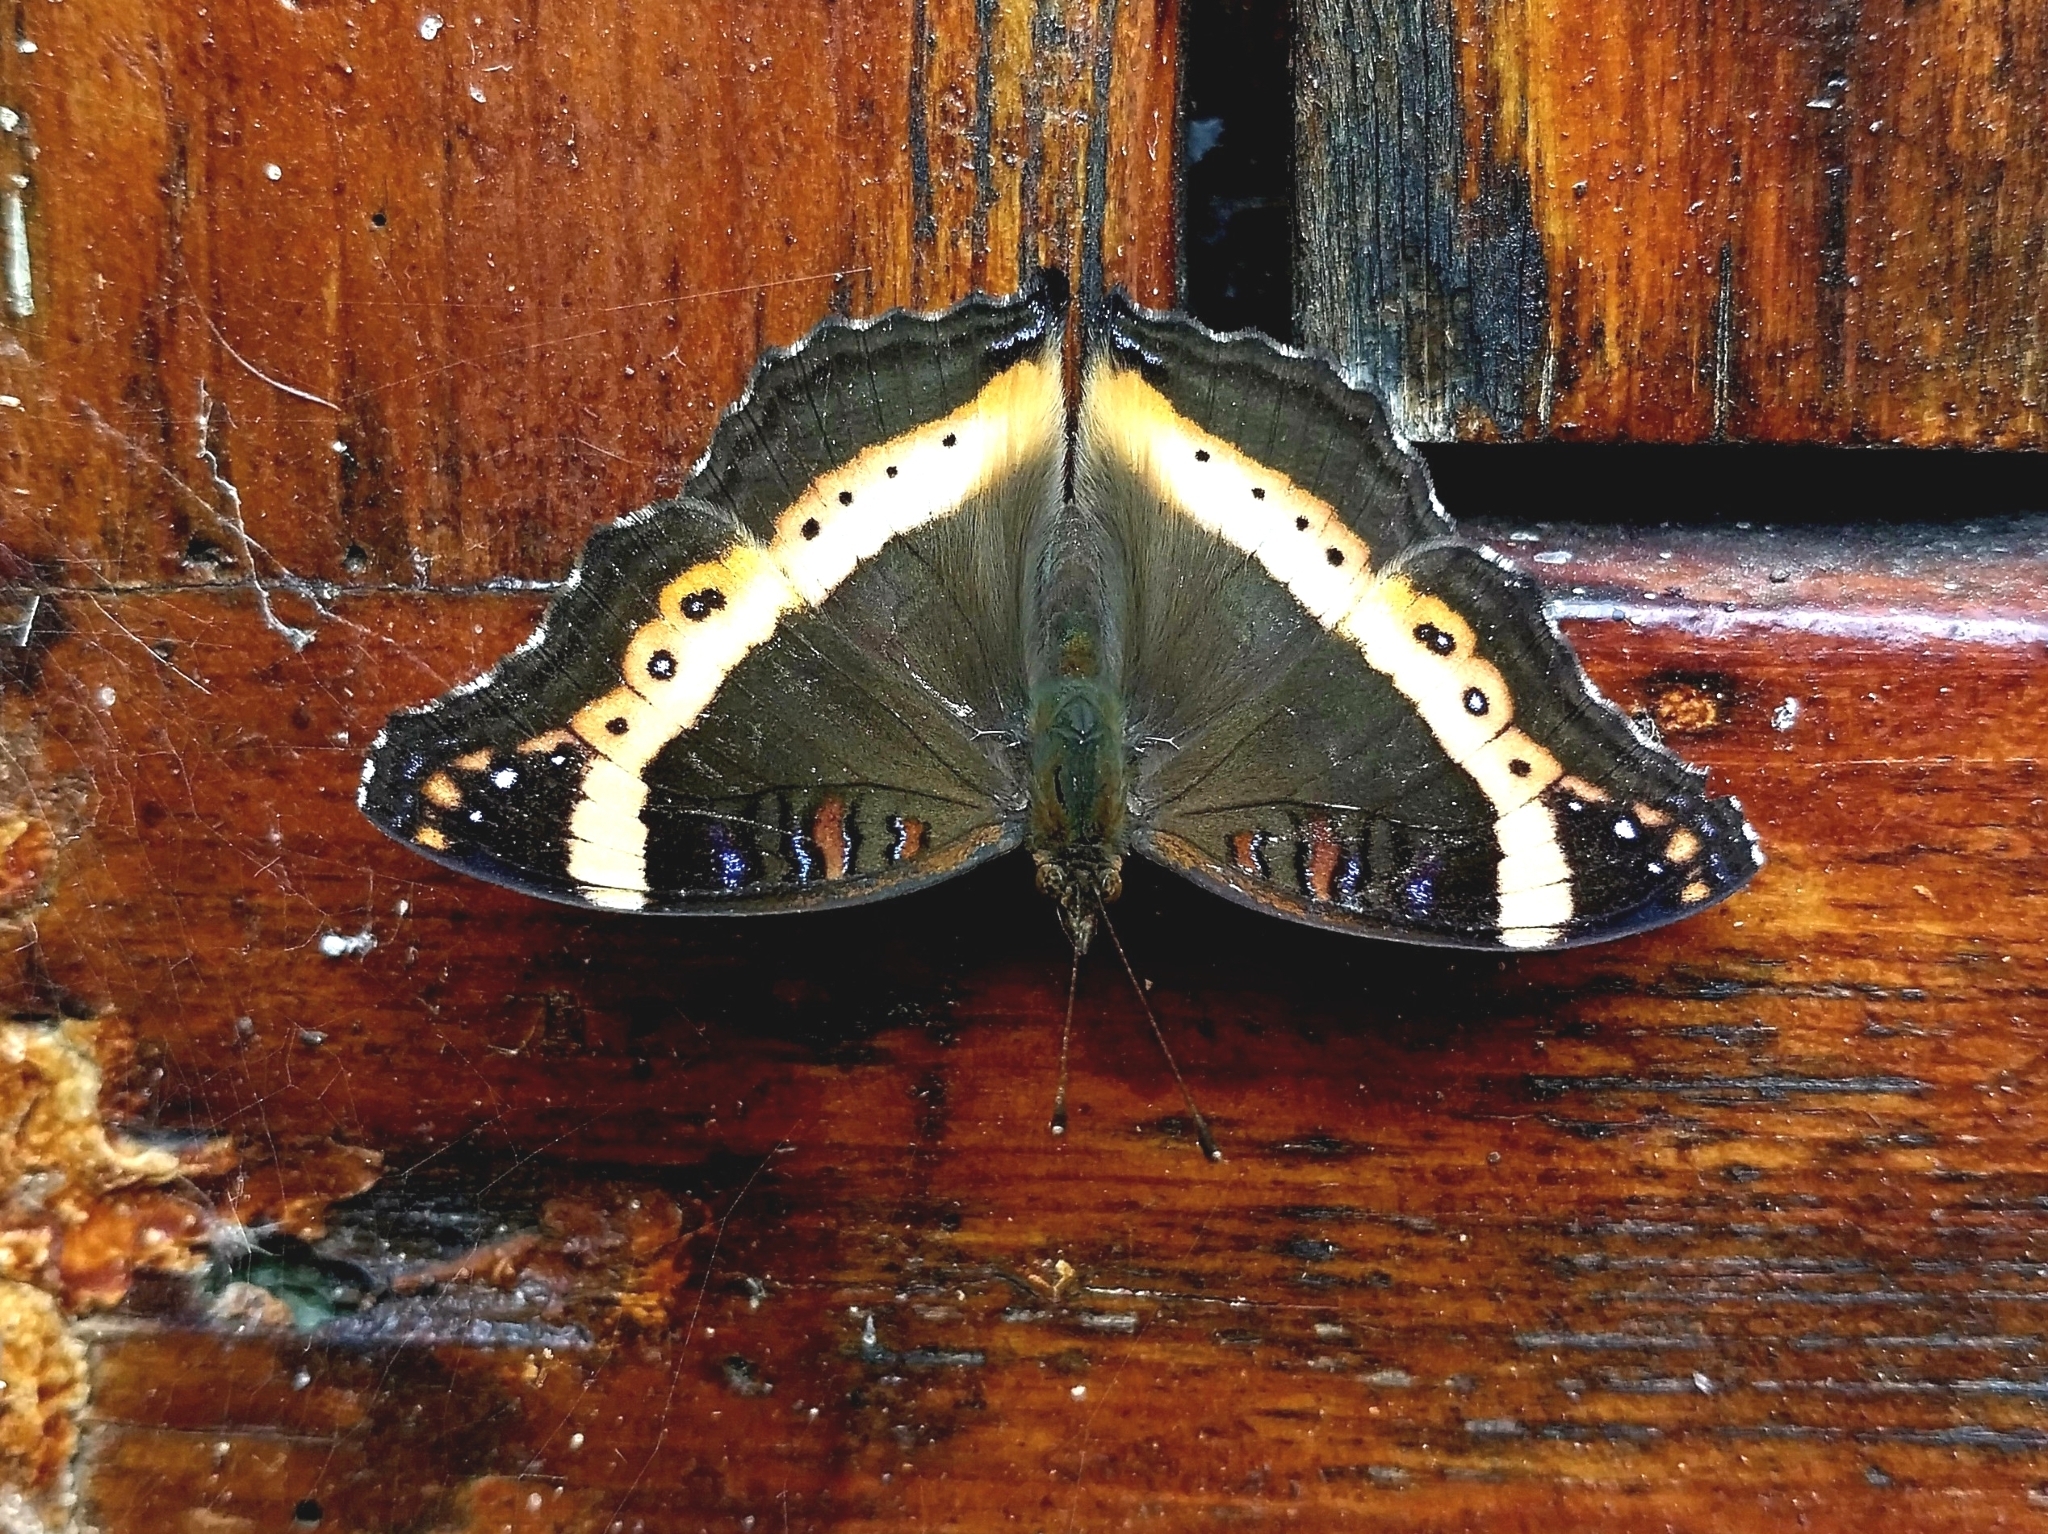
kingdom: Animalia
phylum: Arthropoda
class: Insecta
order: Lepidoptera
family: Nymphalidae
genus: Junonia
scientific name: Junonia archesia
